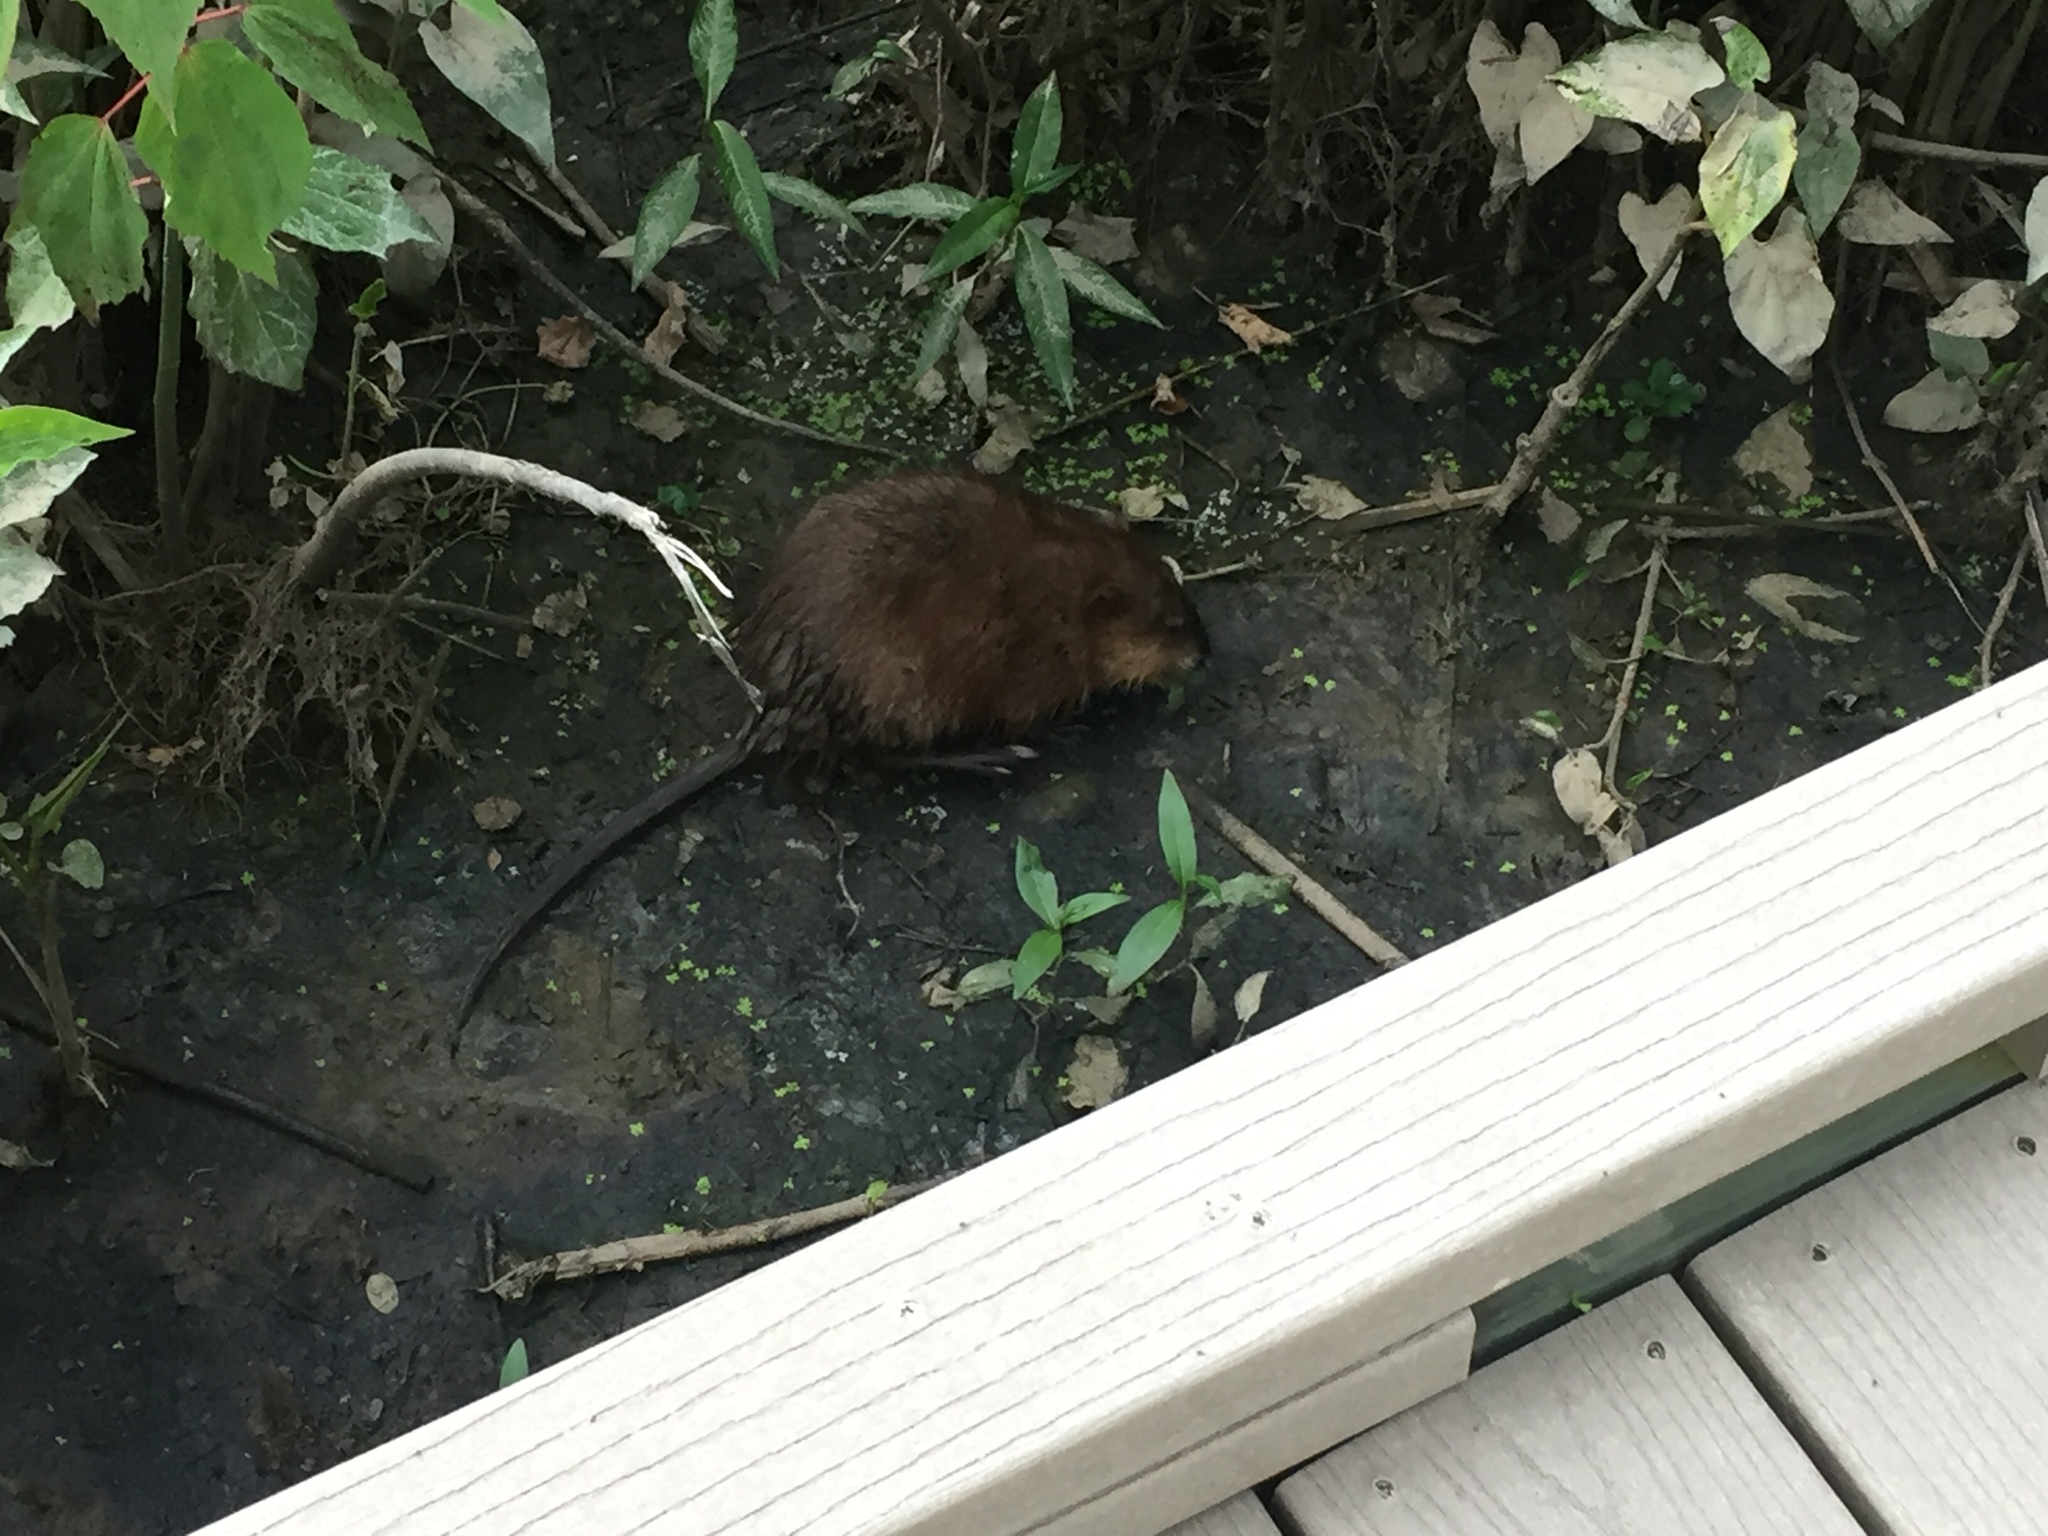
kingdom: Animalia
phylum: Chordata
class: Mammalia
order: Rodentia
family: Cricetidae
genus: Ondatra
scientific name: Ondatra zibethicus
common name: Muskrat
